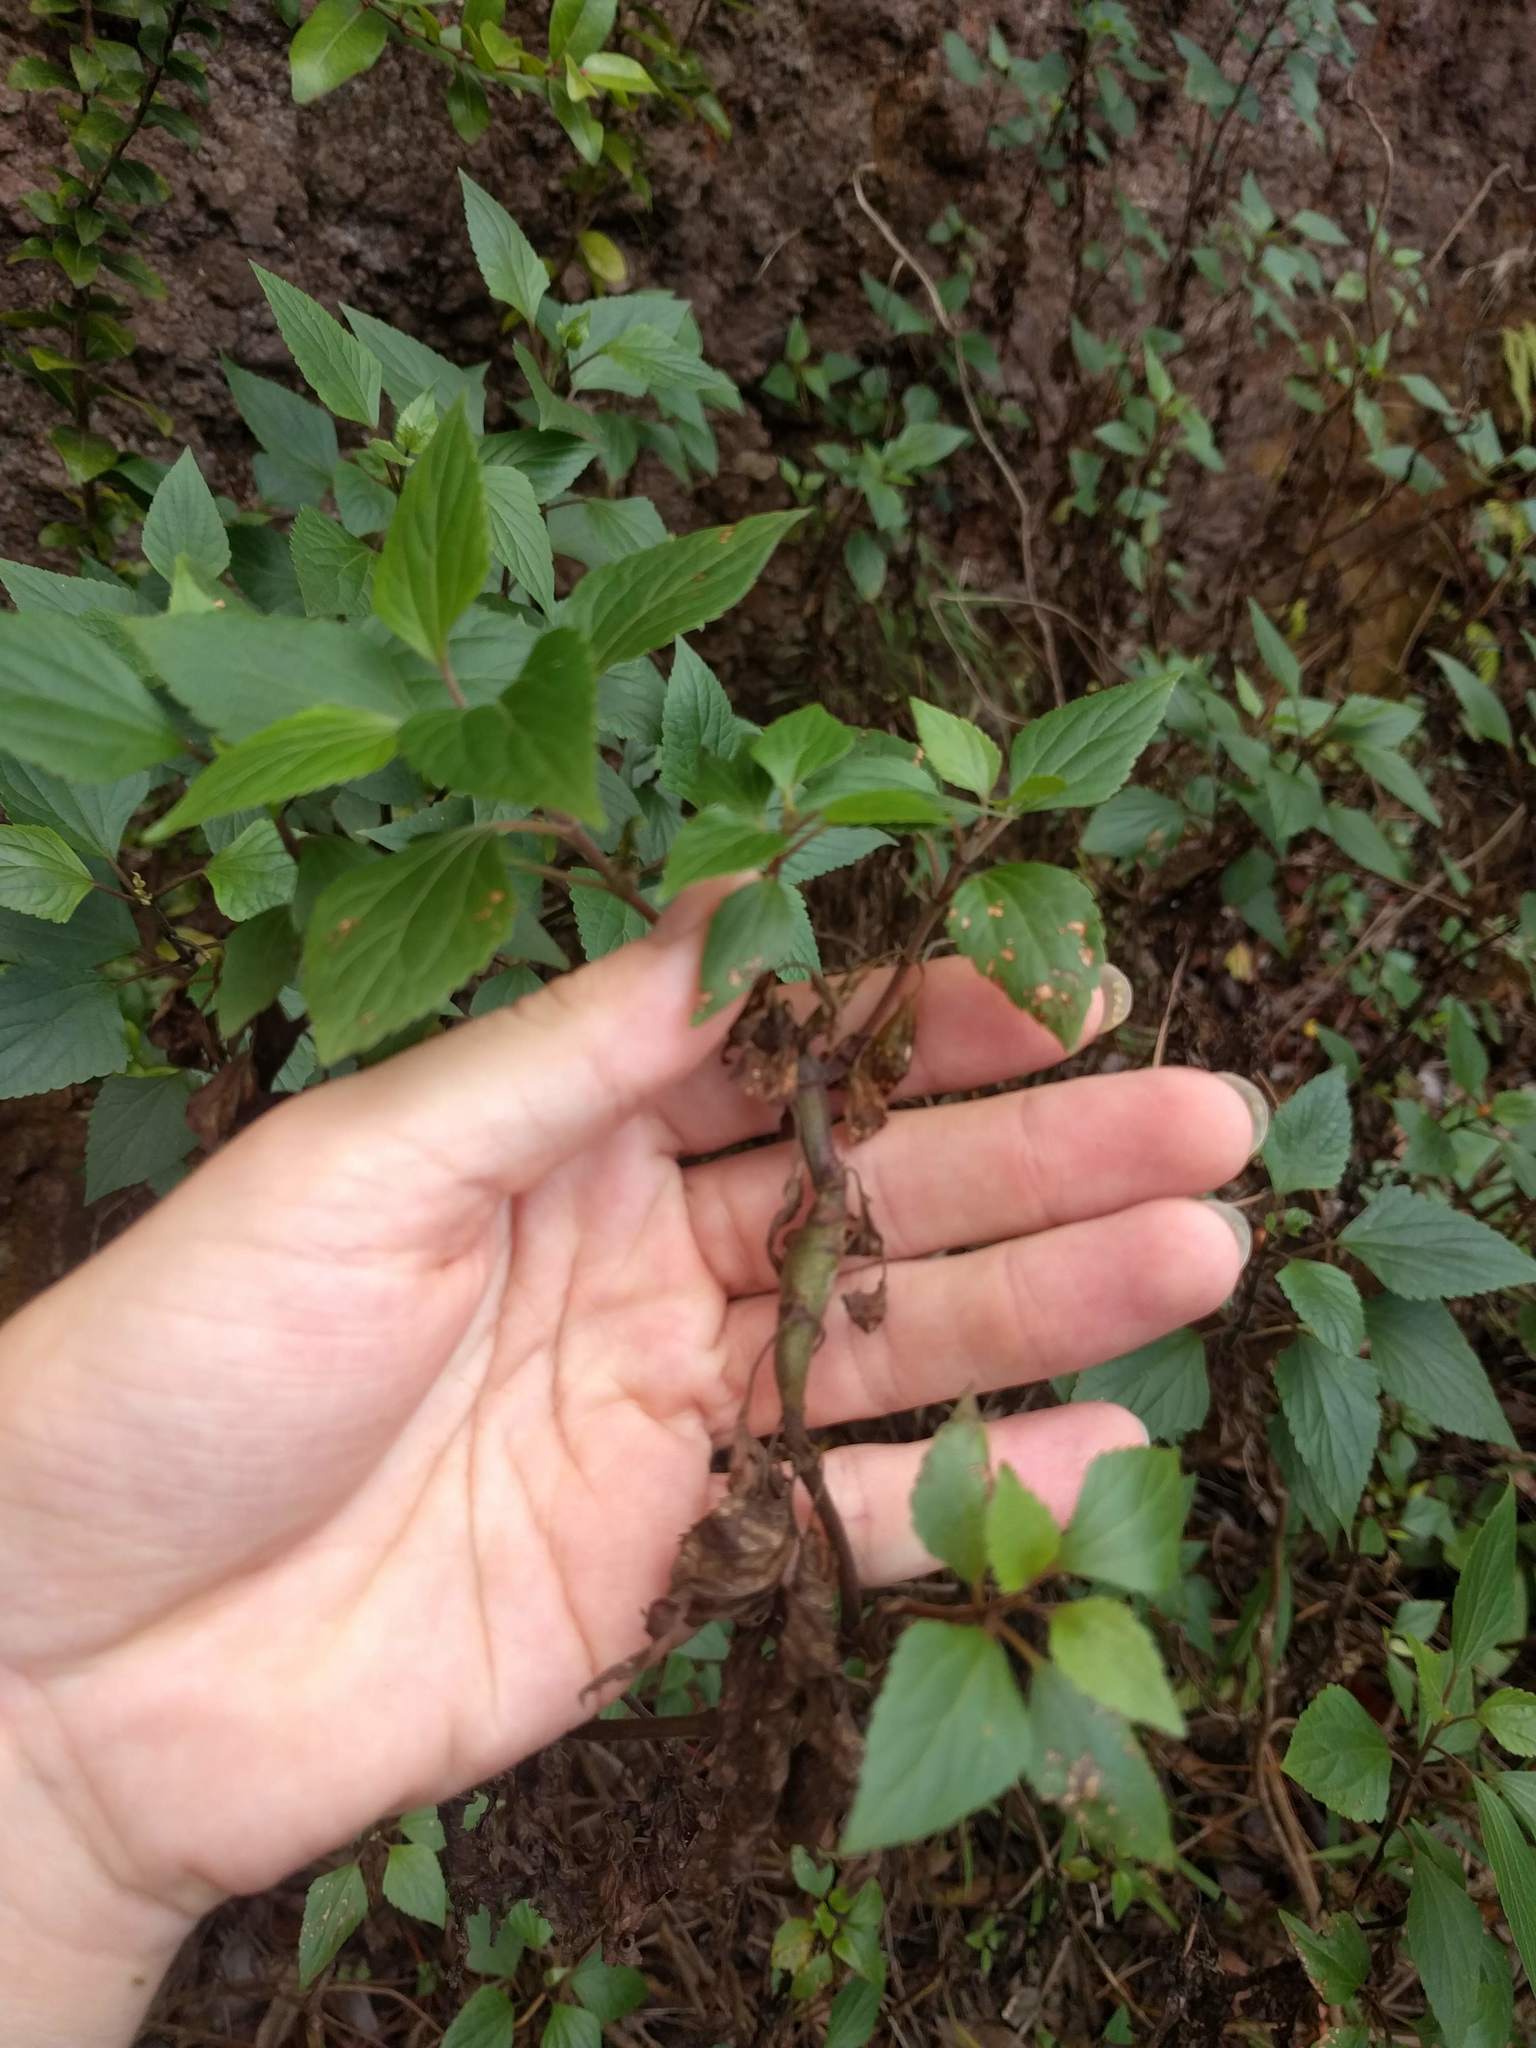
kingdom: Plantae
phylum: Tracheophyta
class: Magnoliopsida
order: Asterales
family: Asteraceae
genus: Ageratina
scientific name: Ageratina adenophora
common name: Sticky snakeroot
